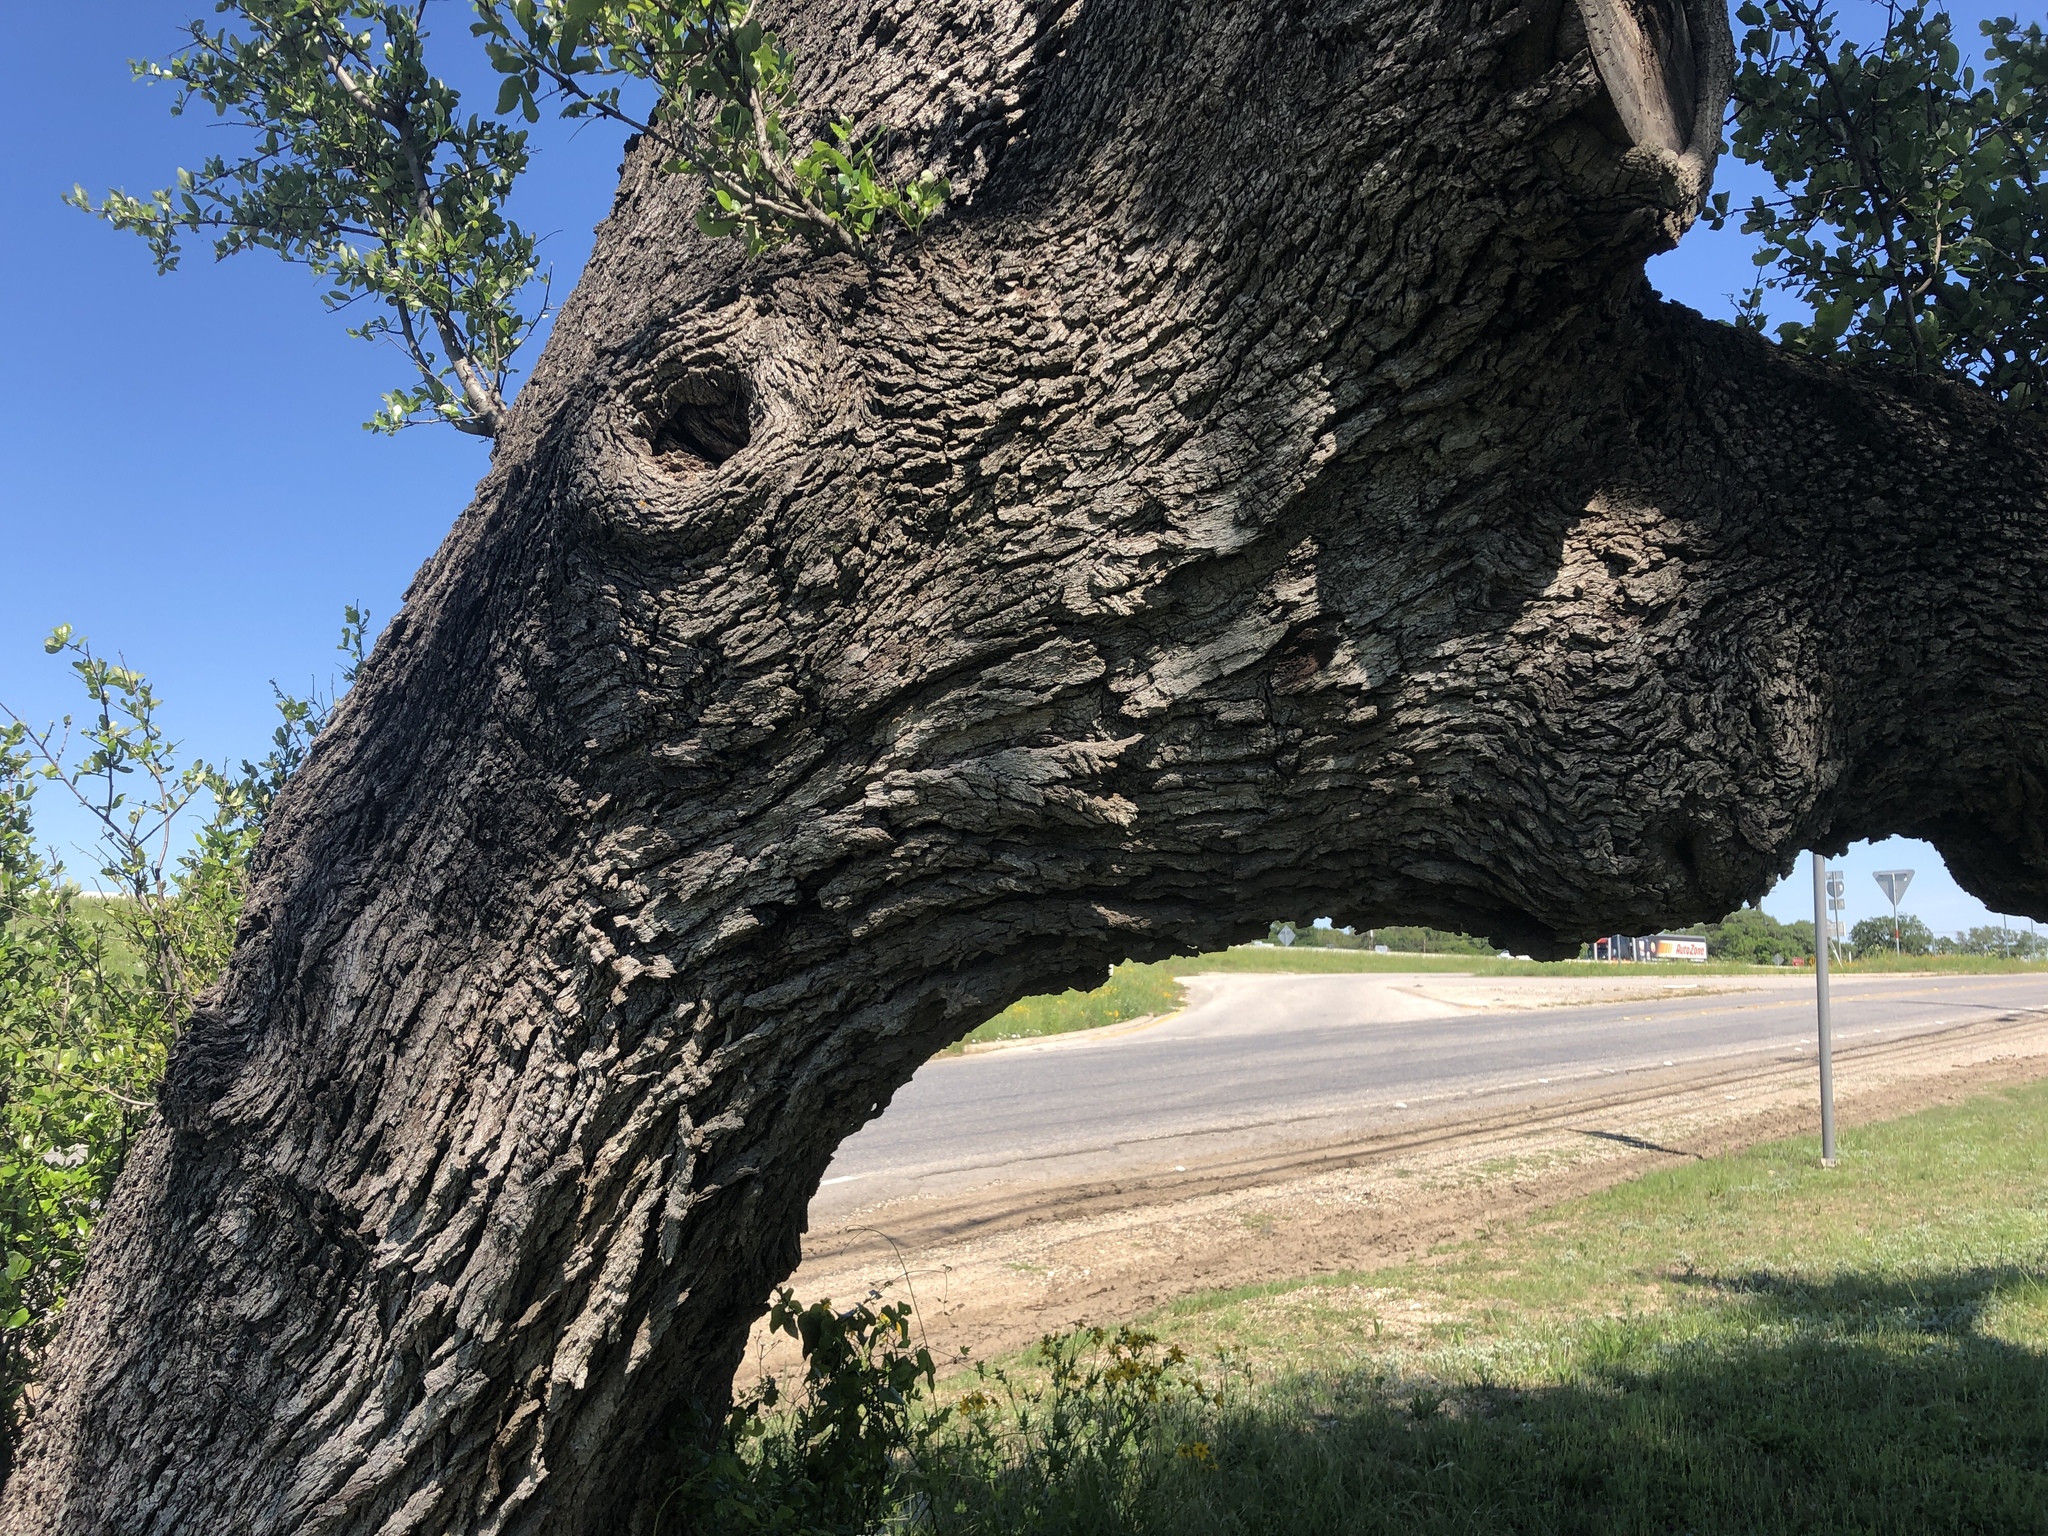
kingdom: Plantae
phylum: Tracheophyta
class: Magnoliopsida
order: Fagales
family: Fagaceae
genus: Quercus
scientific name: Quercus fusiformis
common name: Texas live oak
